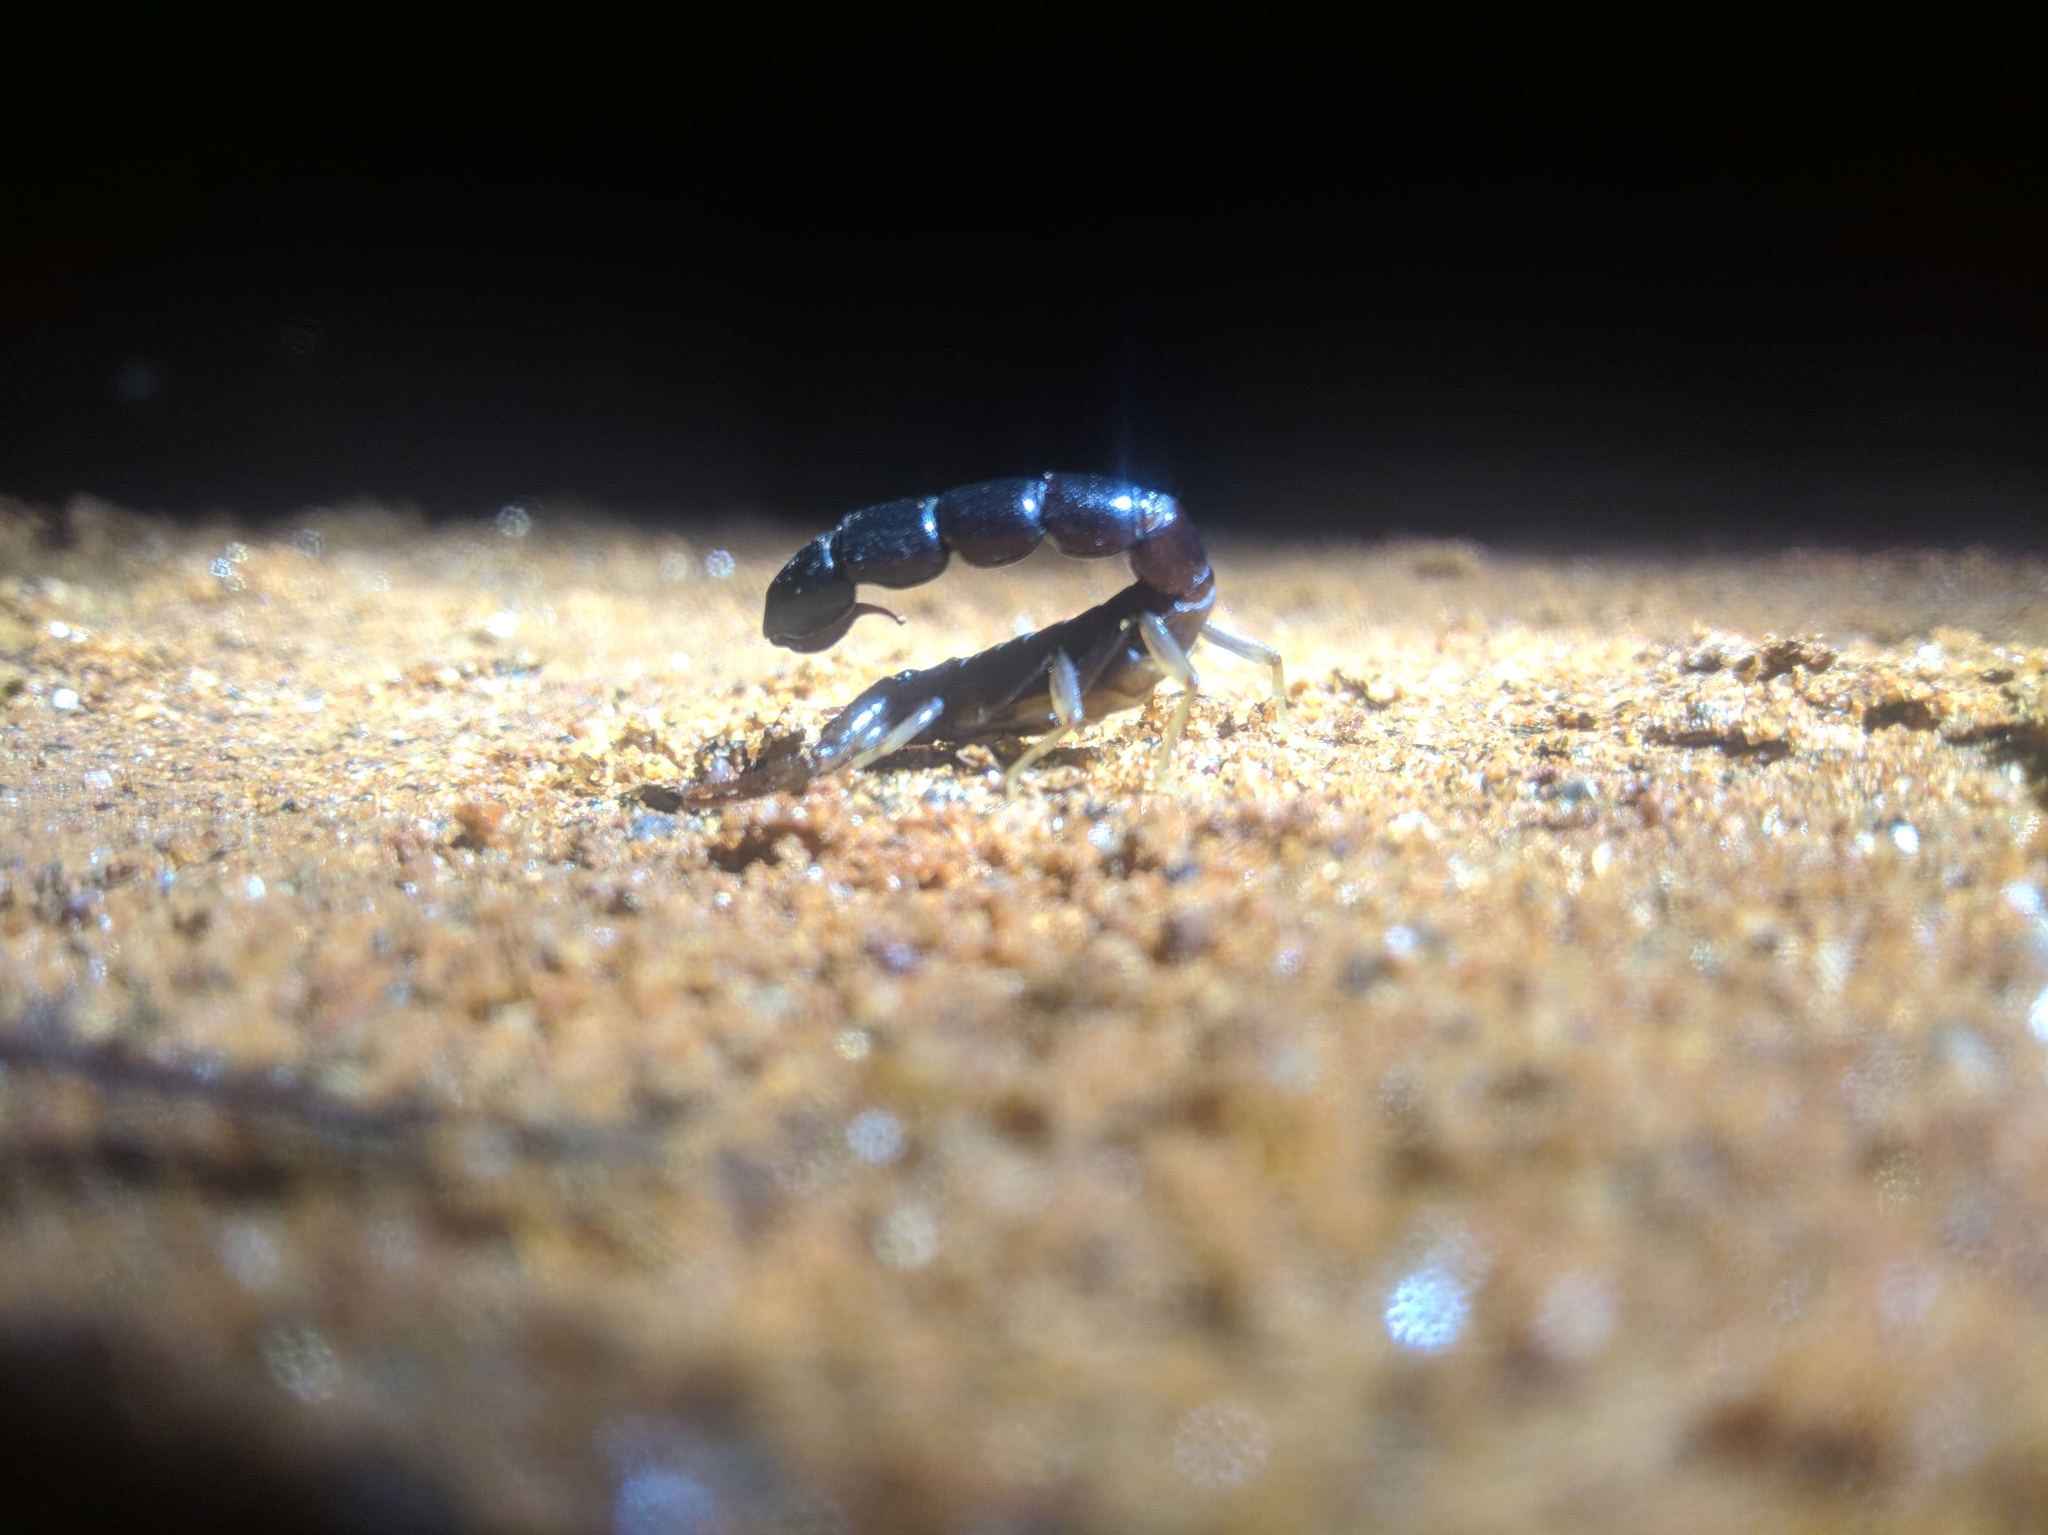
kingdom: Animalia
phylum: Arthropoda
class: Arachnida
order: Scorpiones
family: Buthidae
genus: Buthoscorpio
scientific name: Buthoscorpio politus
